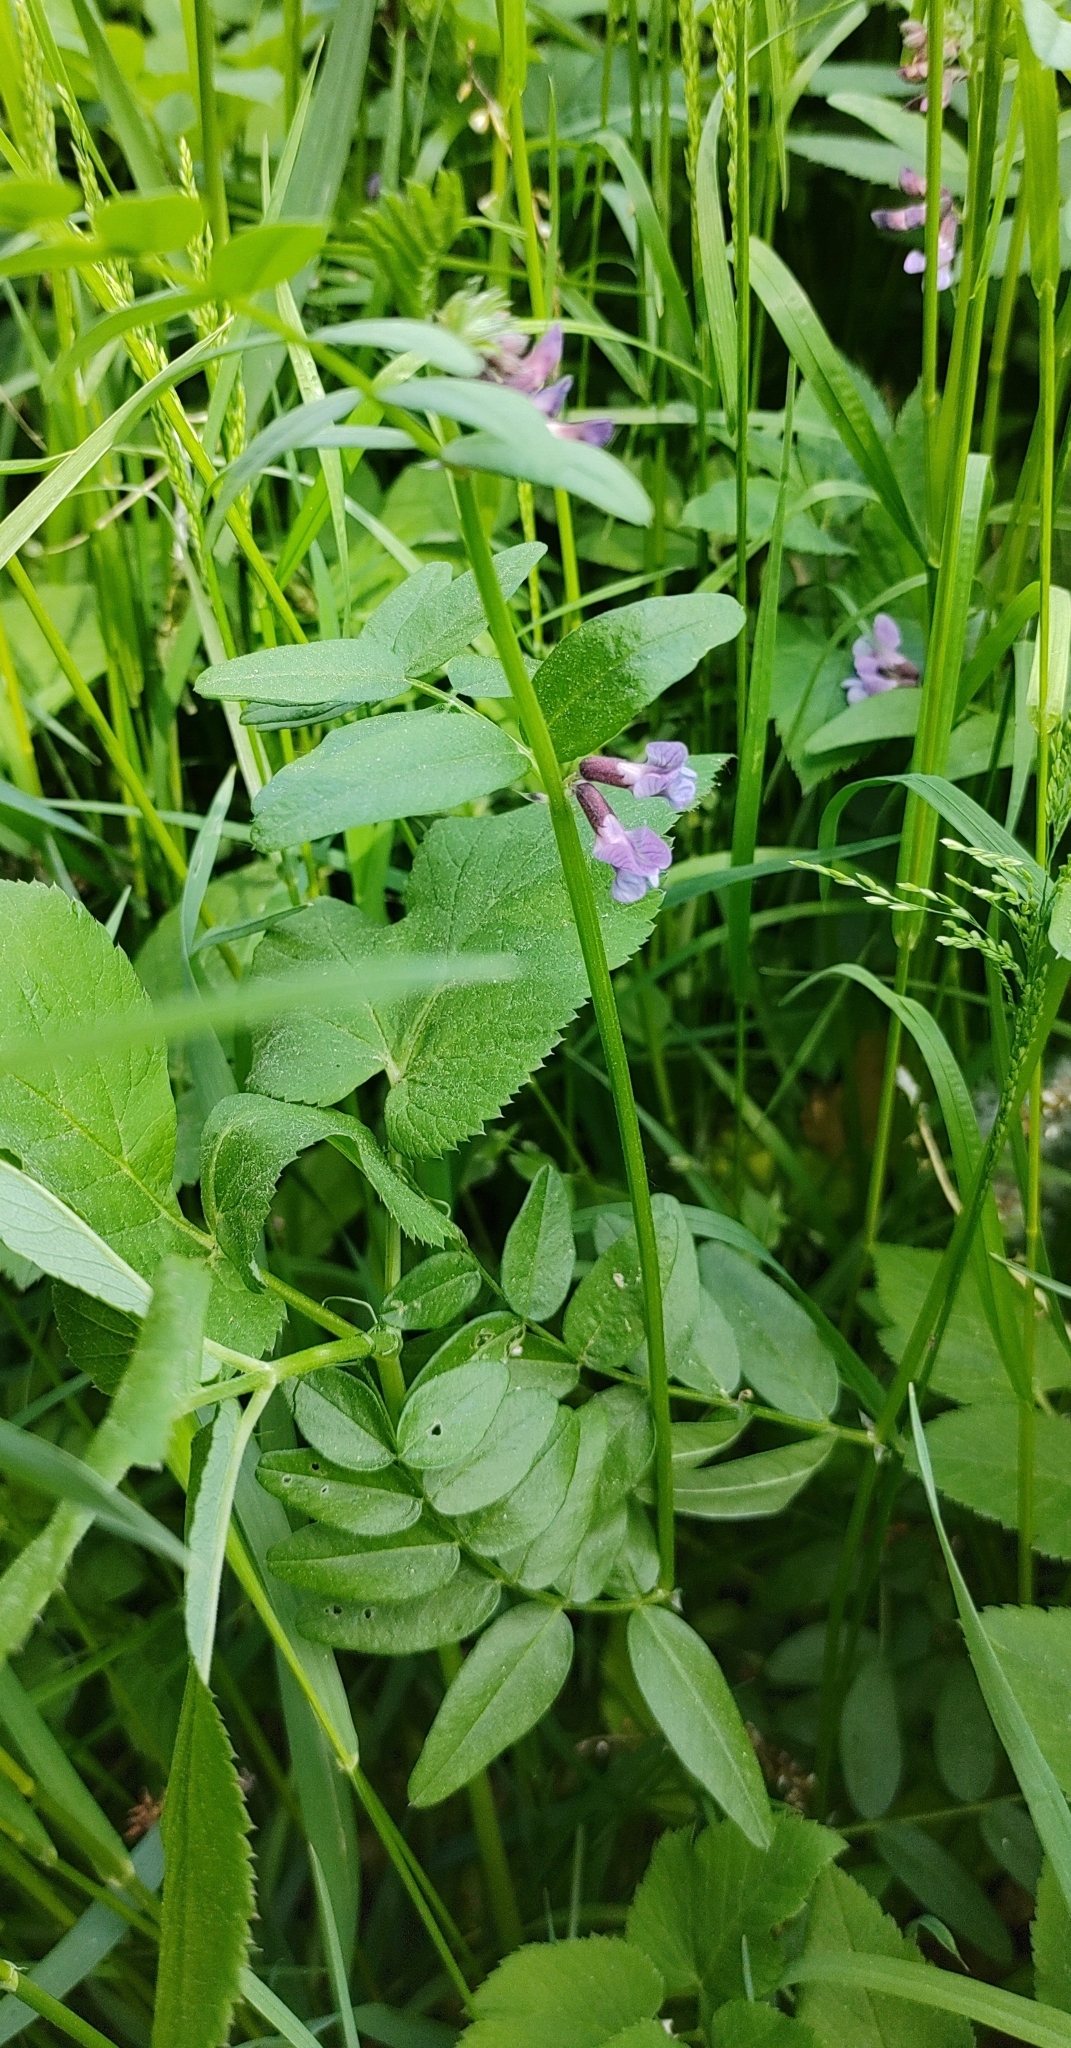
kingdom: Plantae
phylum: Tracheophyta
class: Magnoliopsida
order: Fabales
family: Fabaceae
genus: Vicia
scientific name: Vicia sepium
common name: Bush vetch
